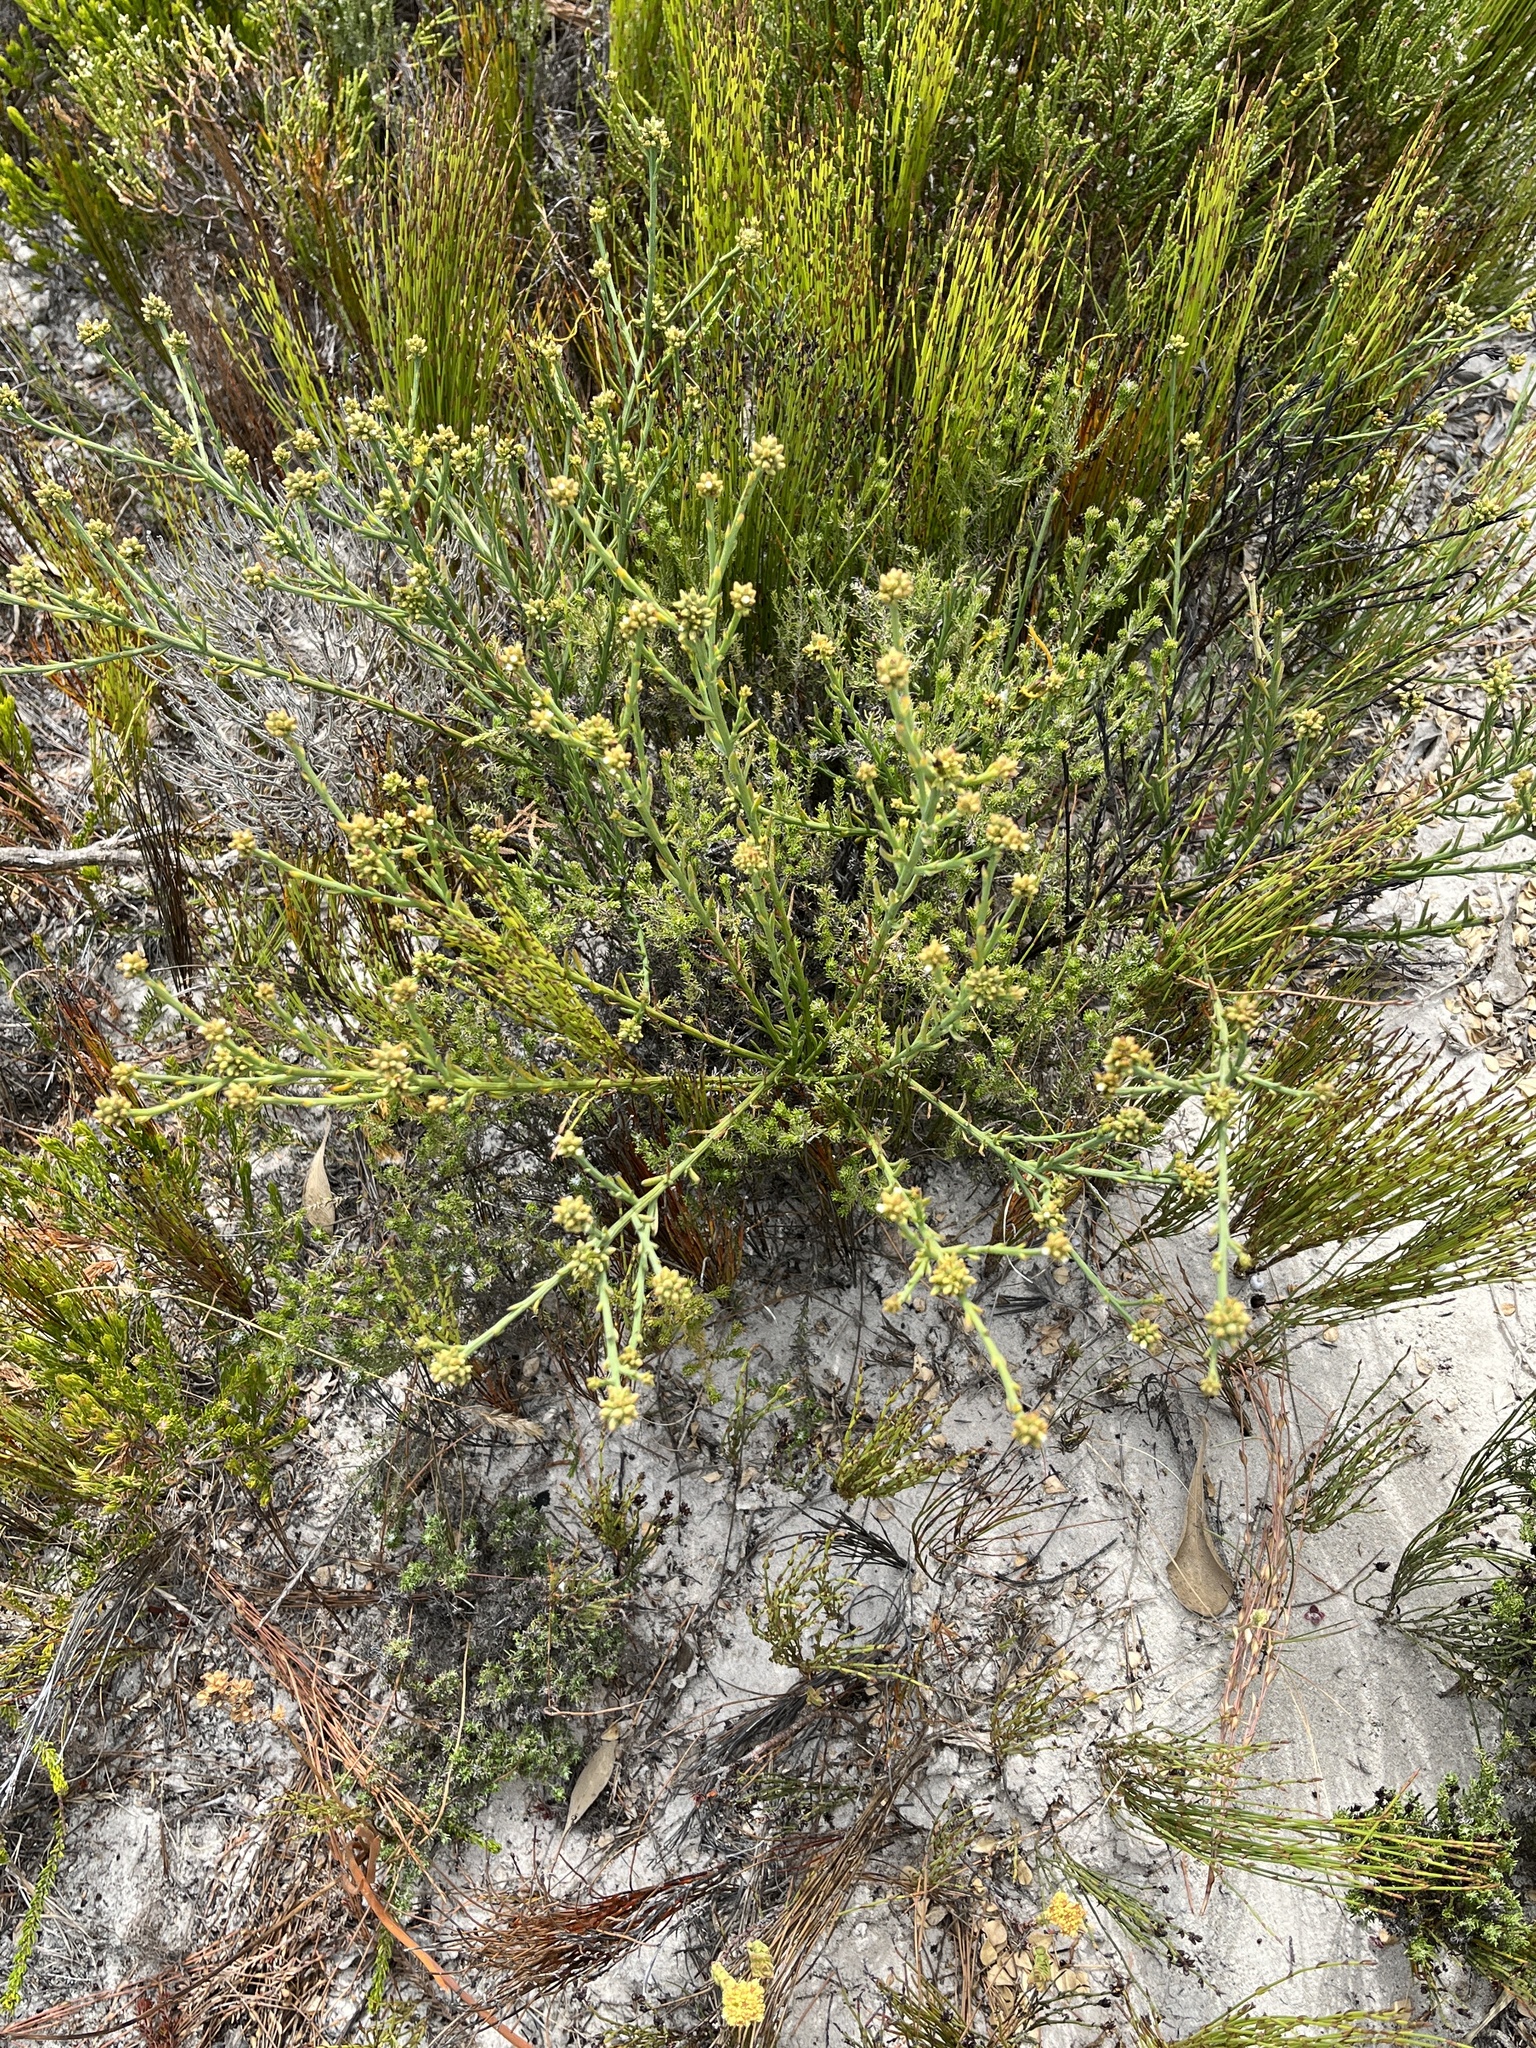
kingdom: Plantae
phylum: Tracheophyta
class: Magnoliopsida
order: Santalales
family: Thesiaceae
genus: Thesium
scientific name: Thesium aggregatum
